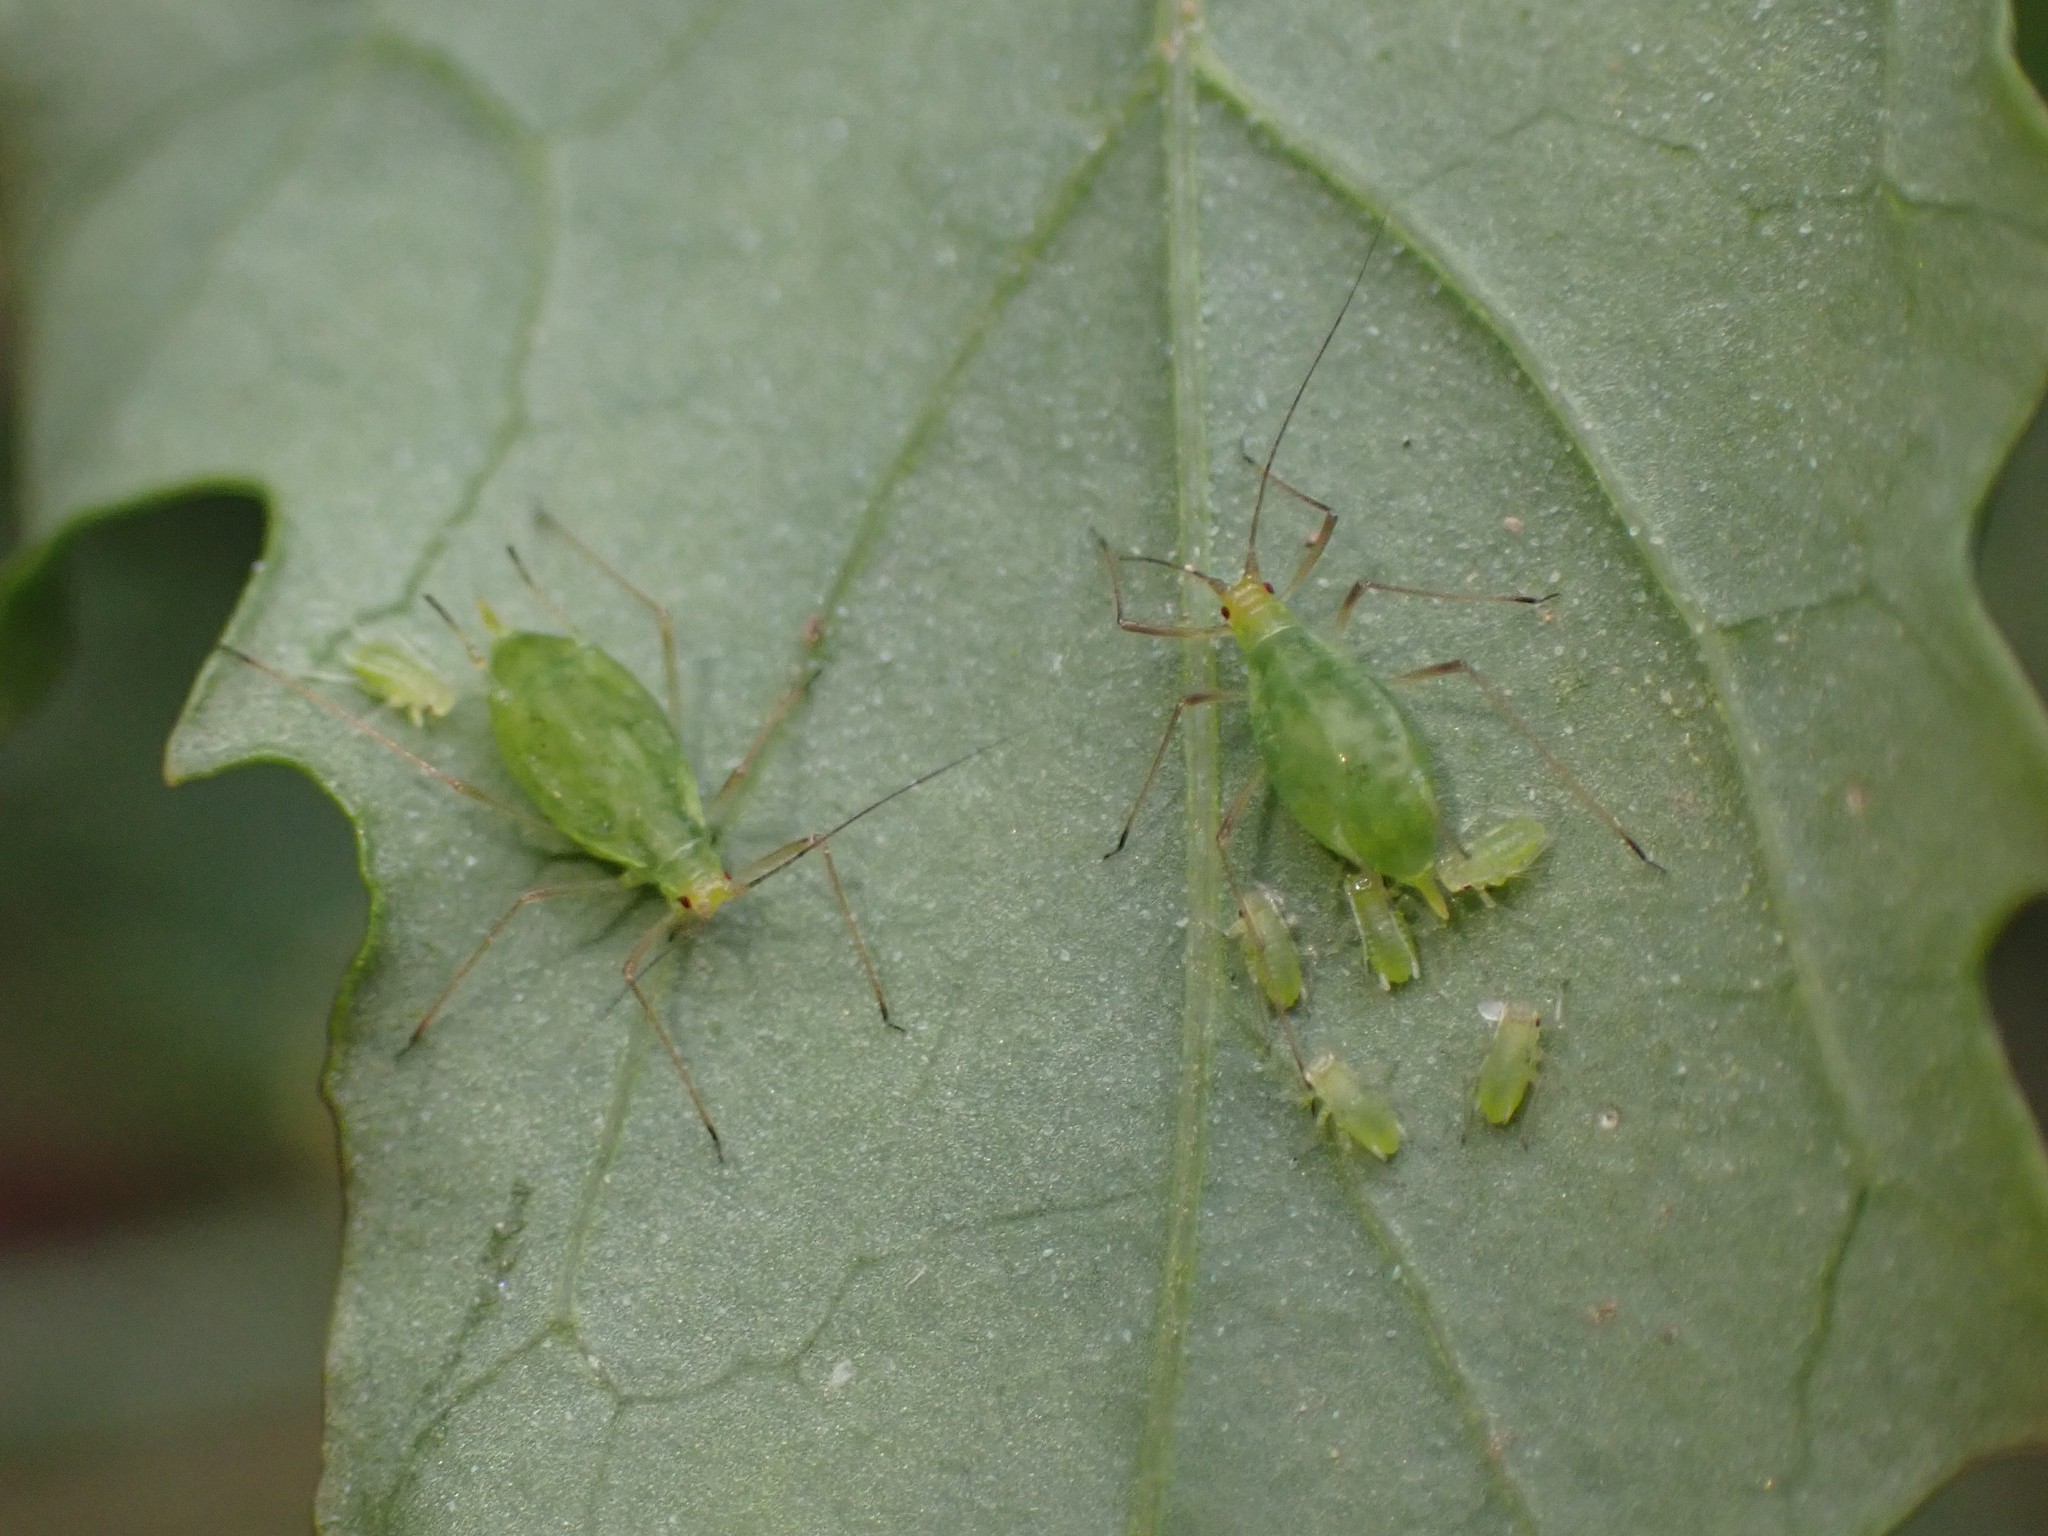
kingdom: Animalia
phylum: Arthropoda
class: Insecta
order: Hemiptera
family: Aphididae
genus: Macrosiphum
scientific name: Macrosiphum euphorbiae
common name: Potato aphid
